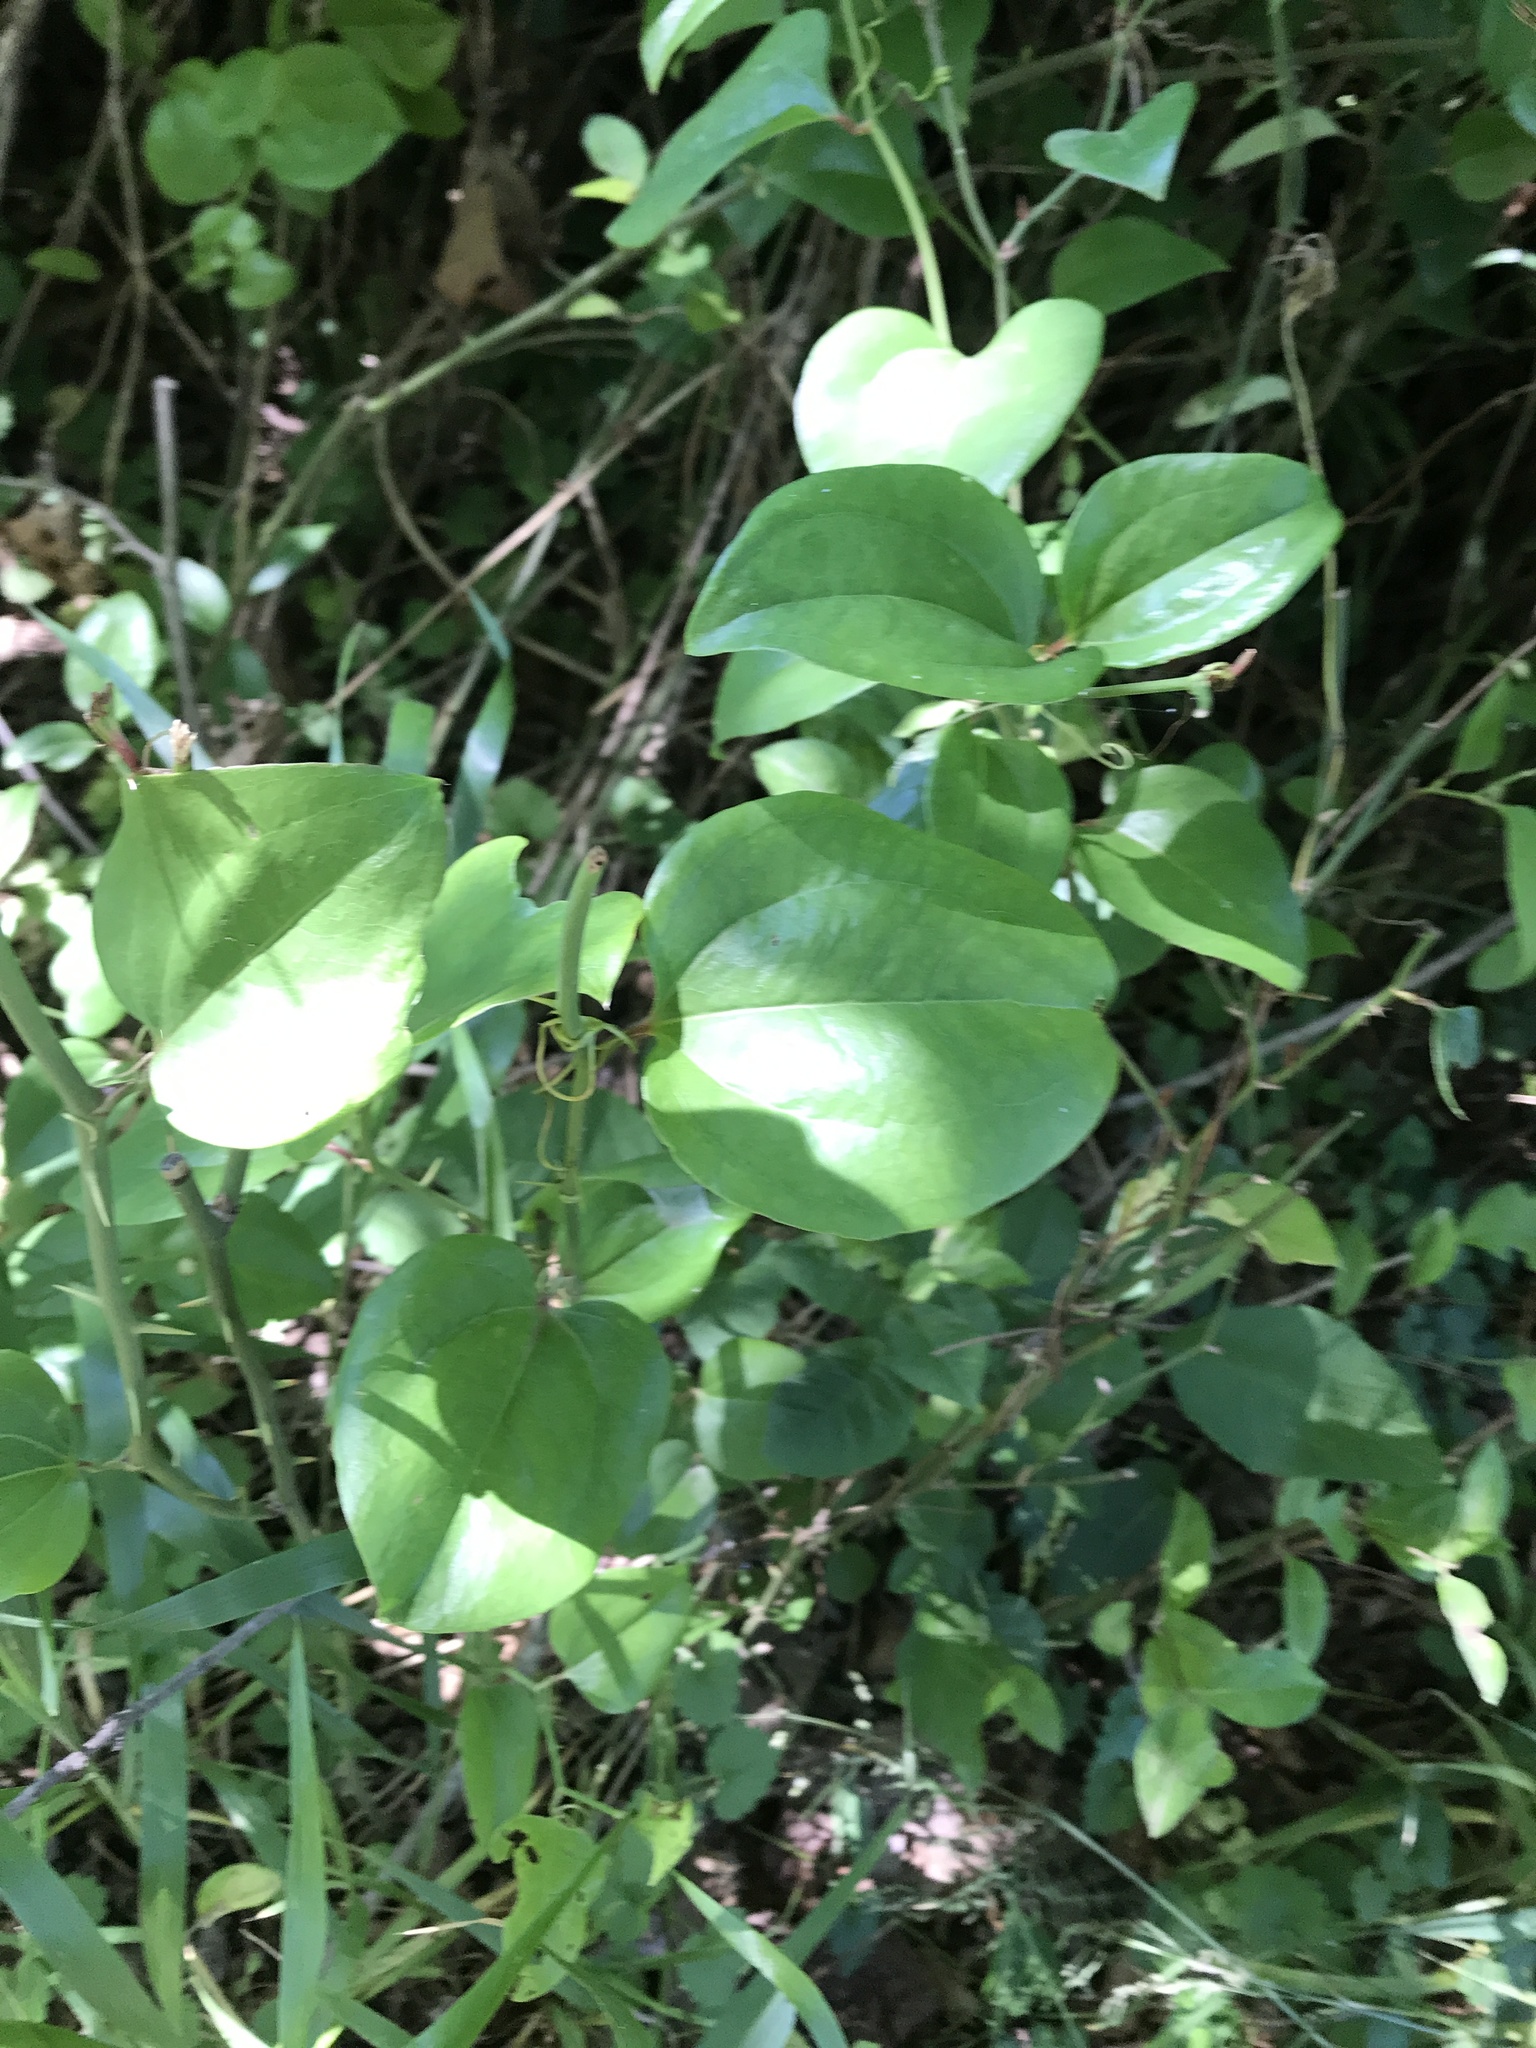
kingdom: Plantae
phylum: Tracheophyta
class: Liliopsida
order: Liliales
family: Smilacaceae
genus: Smilax
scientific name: Smilax rotundifolia
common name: Bullbriar
